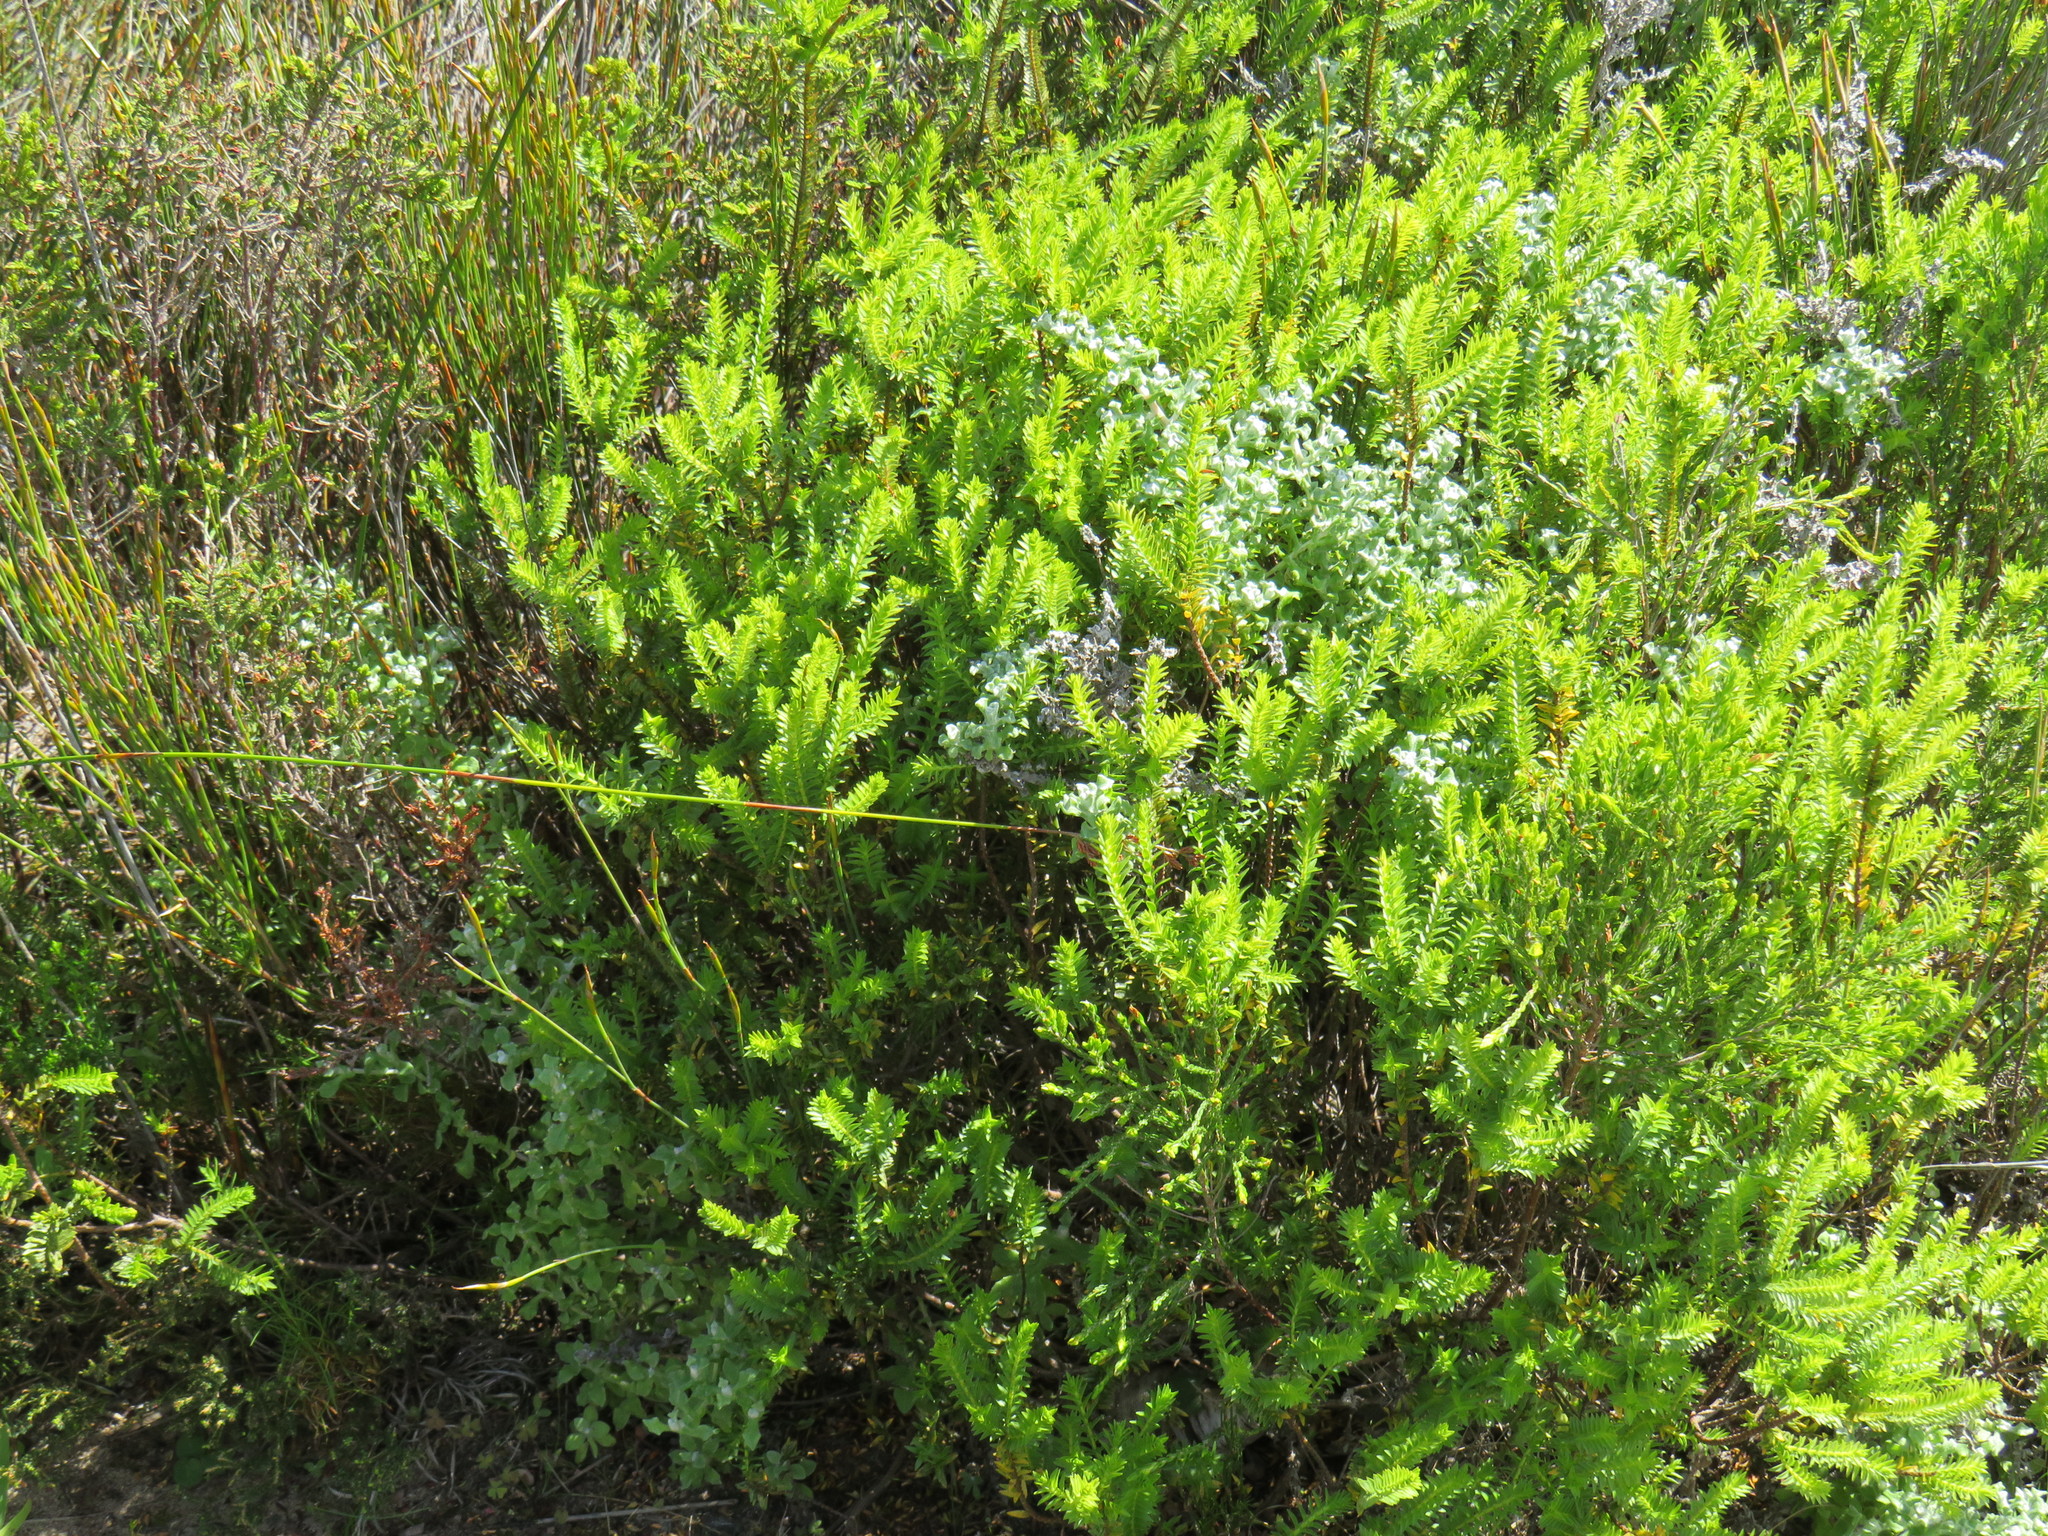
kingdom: Plantae
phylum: Tracheophyta
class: Magnoliopsida
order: Malvales
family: Thymelaeaceae
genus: Struthiola
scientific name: Struthiola striata
